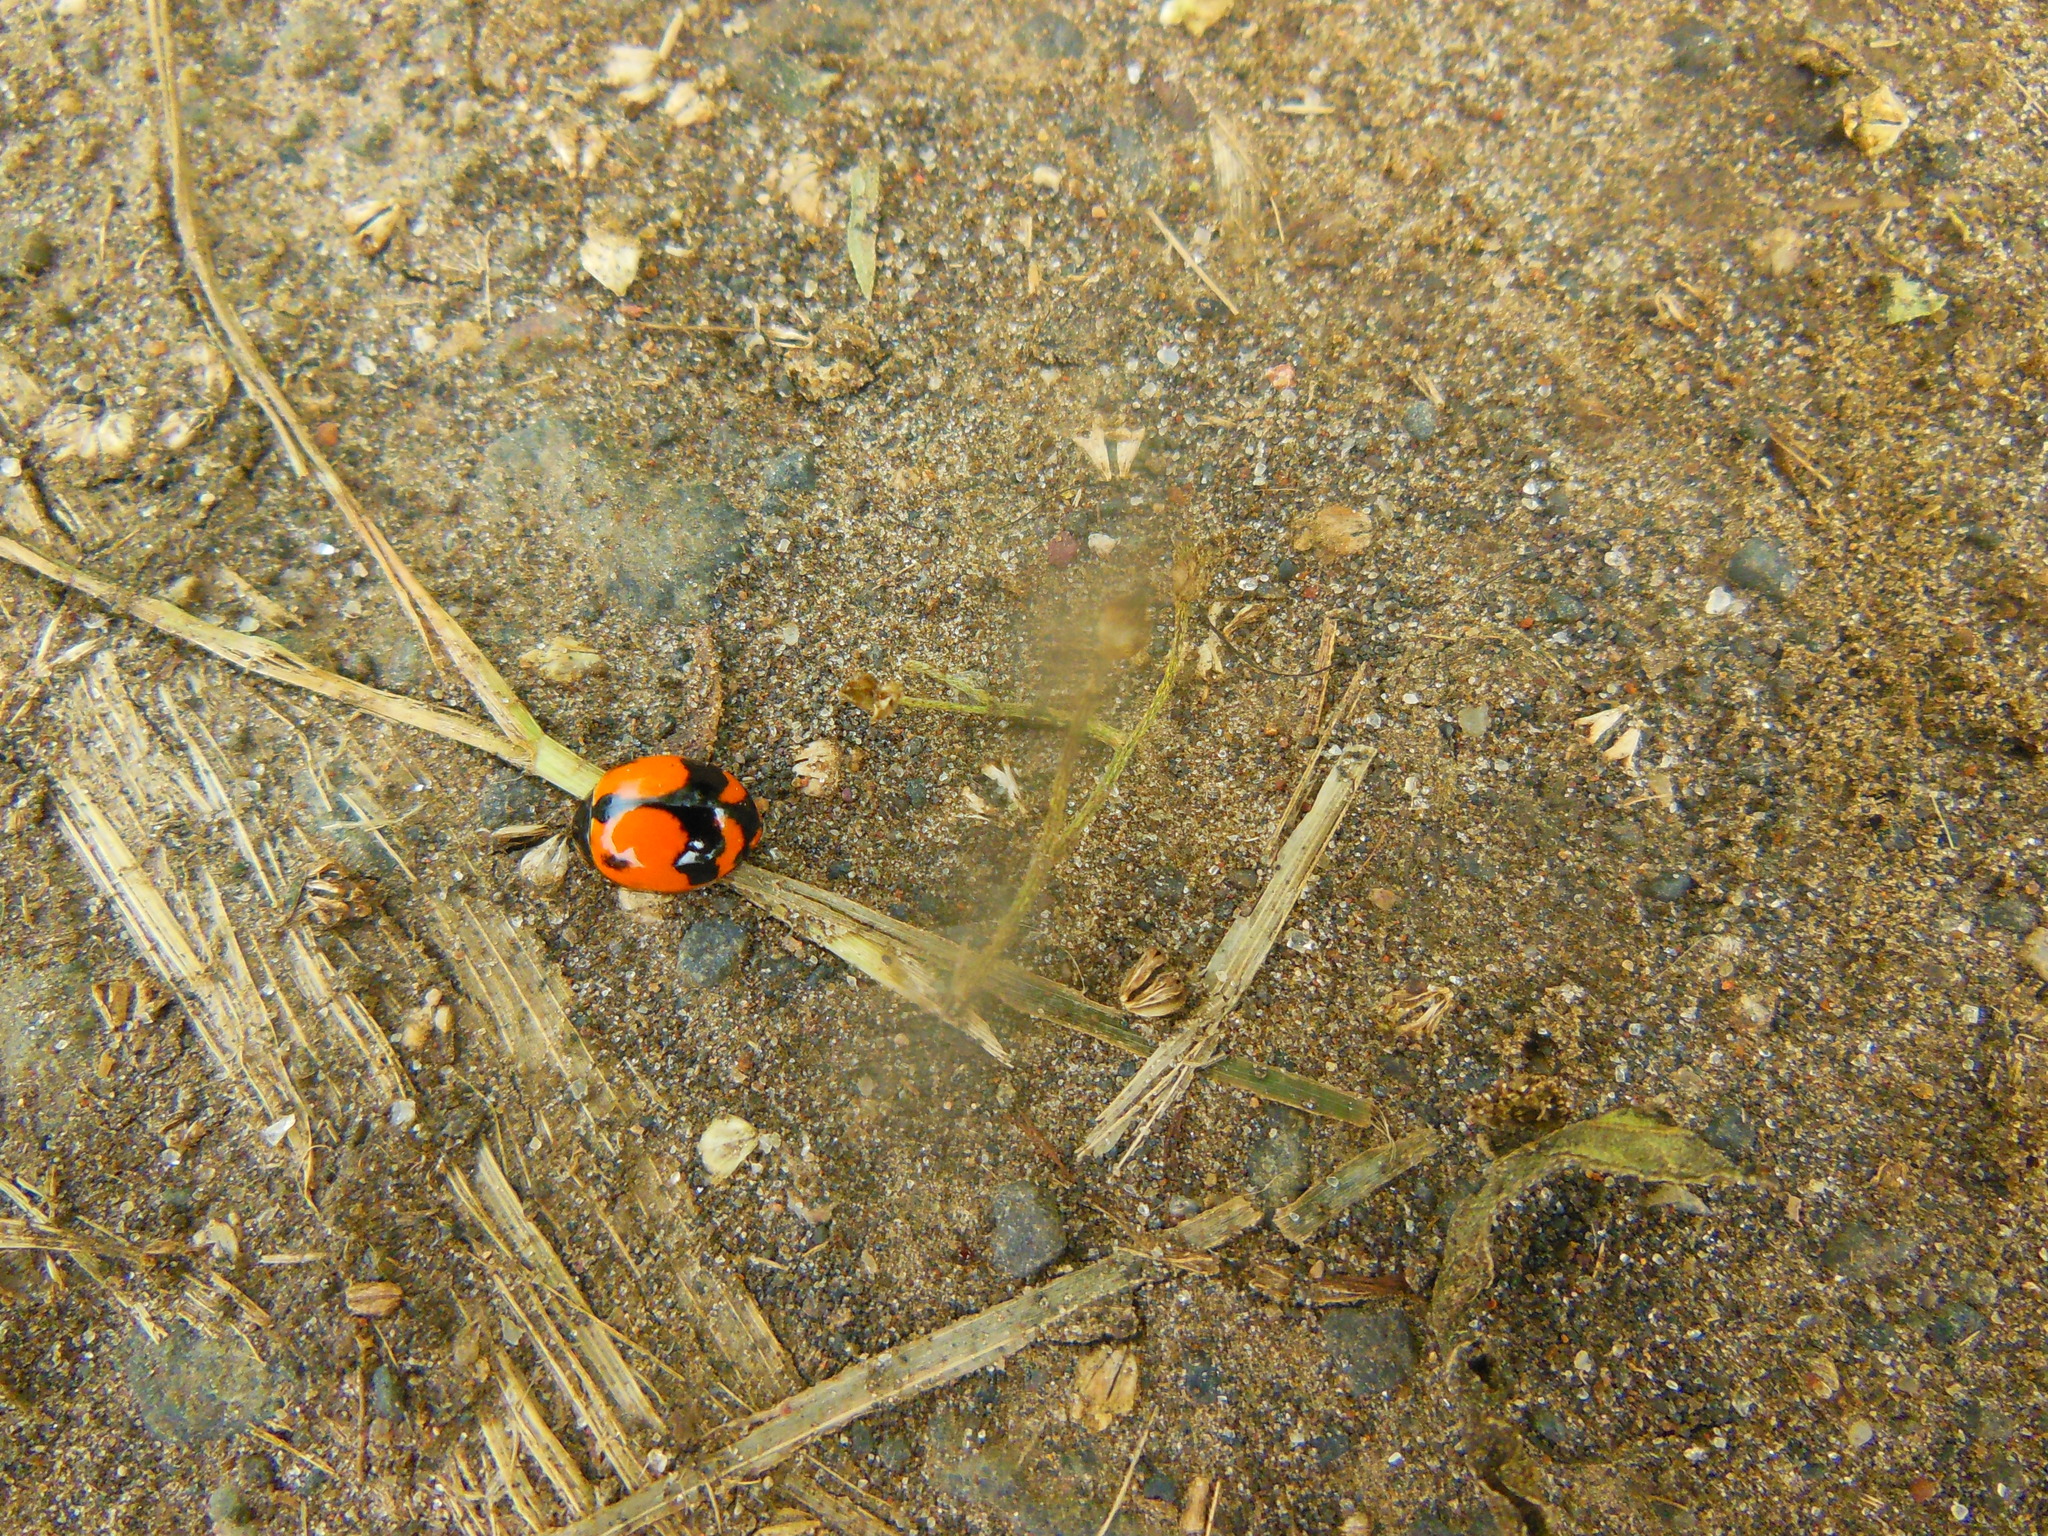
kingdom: Animalia
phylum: Arthropoda
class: Insecta
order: Coleoptera
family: Coccinellidae
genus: Coccinella
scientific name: Coccinella transversalis
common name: Transverse lady beetle
